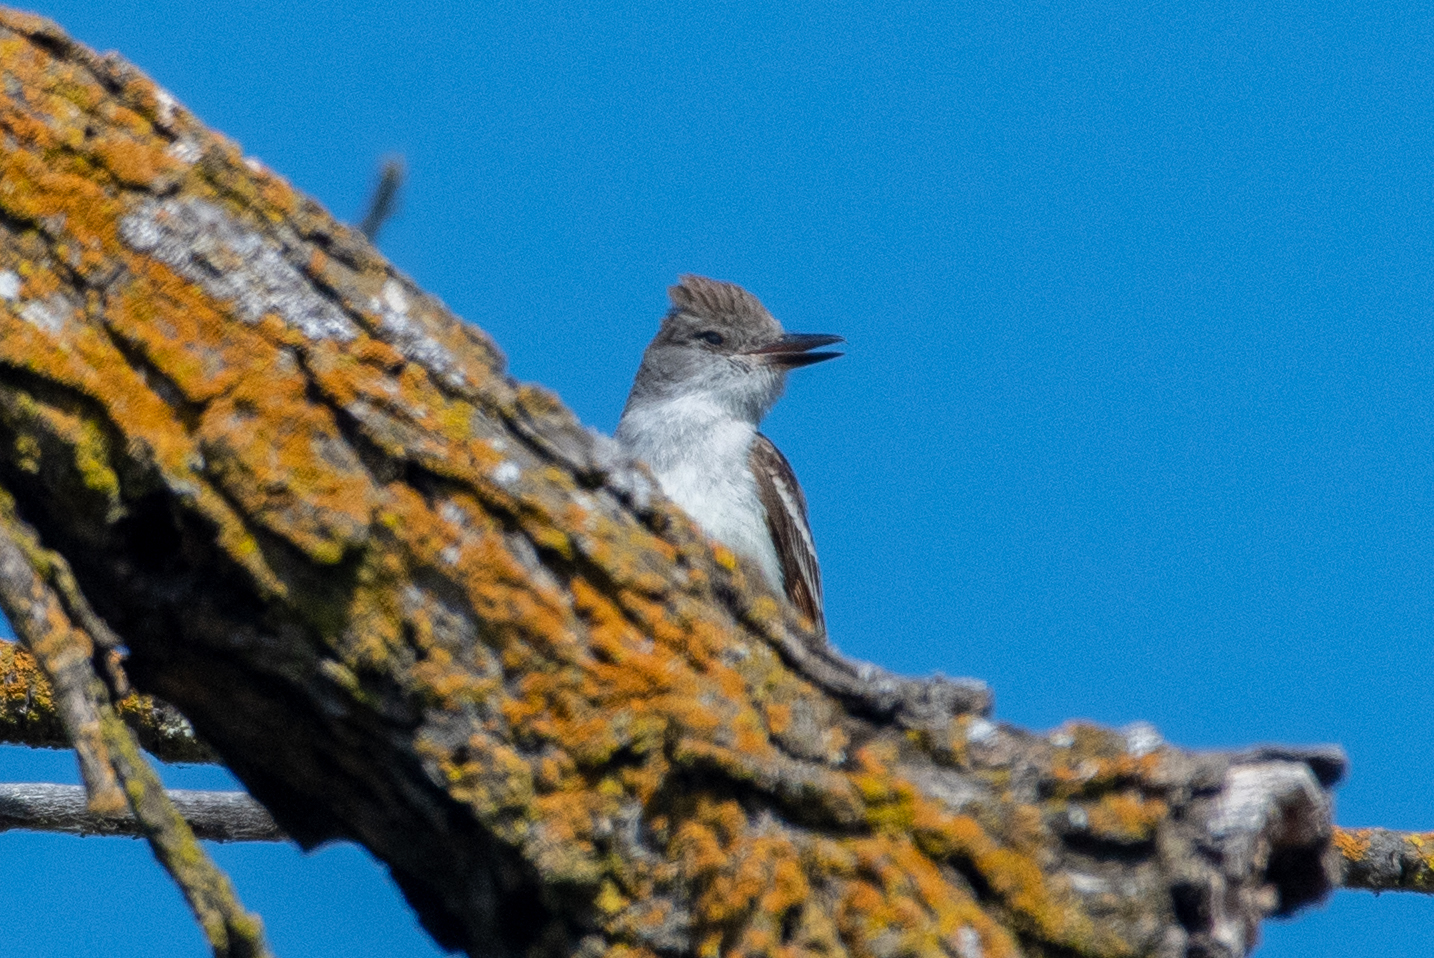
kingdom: Animalia
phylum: Chordata
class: Aves
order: Passeriformes
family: Tyrannidae
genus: Myiarchus
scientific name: Myiarchus cinerascens
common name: Ash-throated flycatcher
